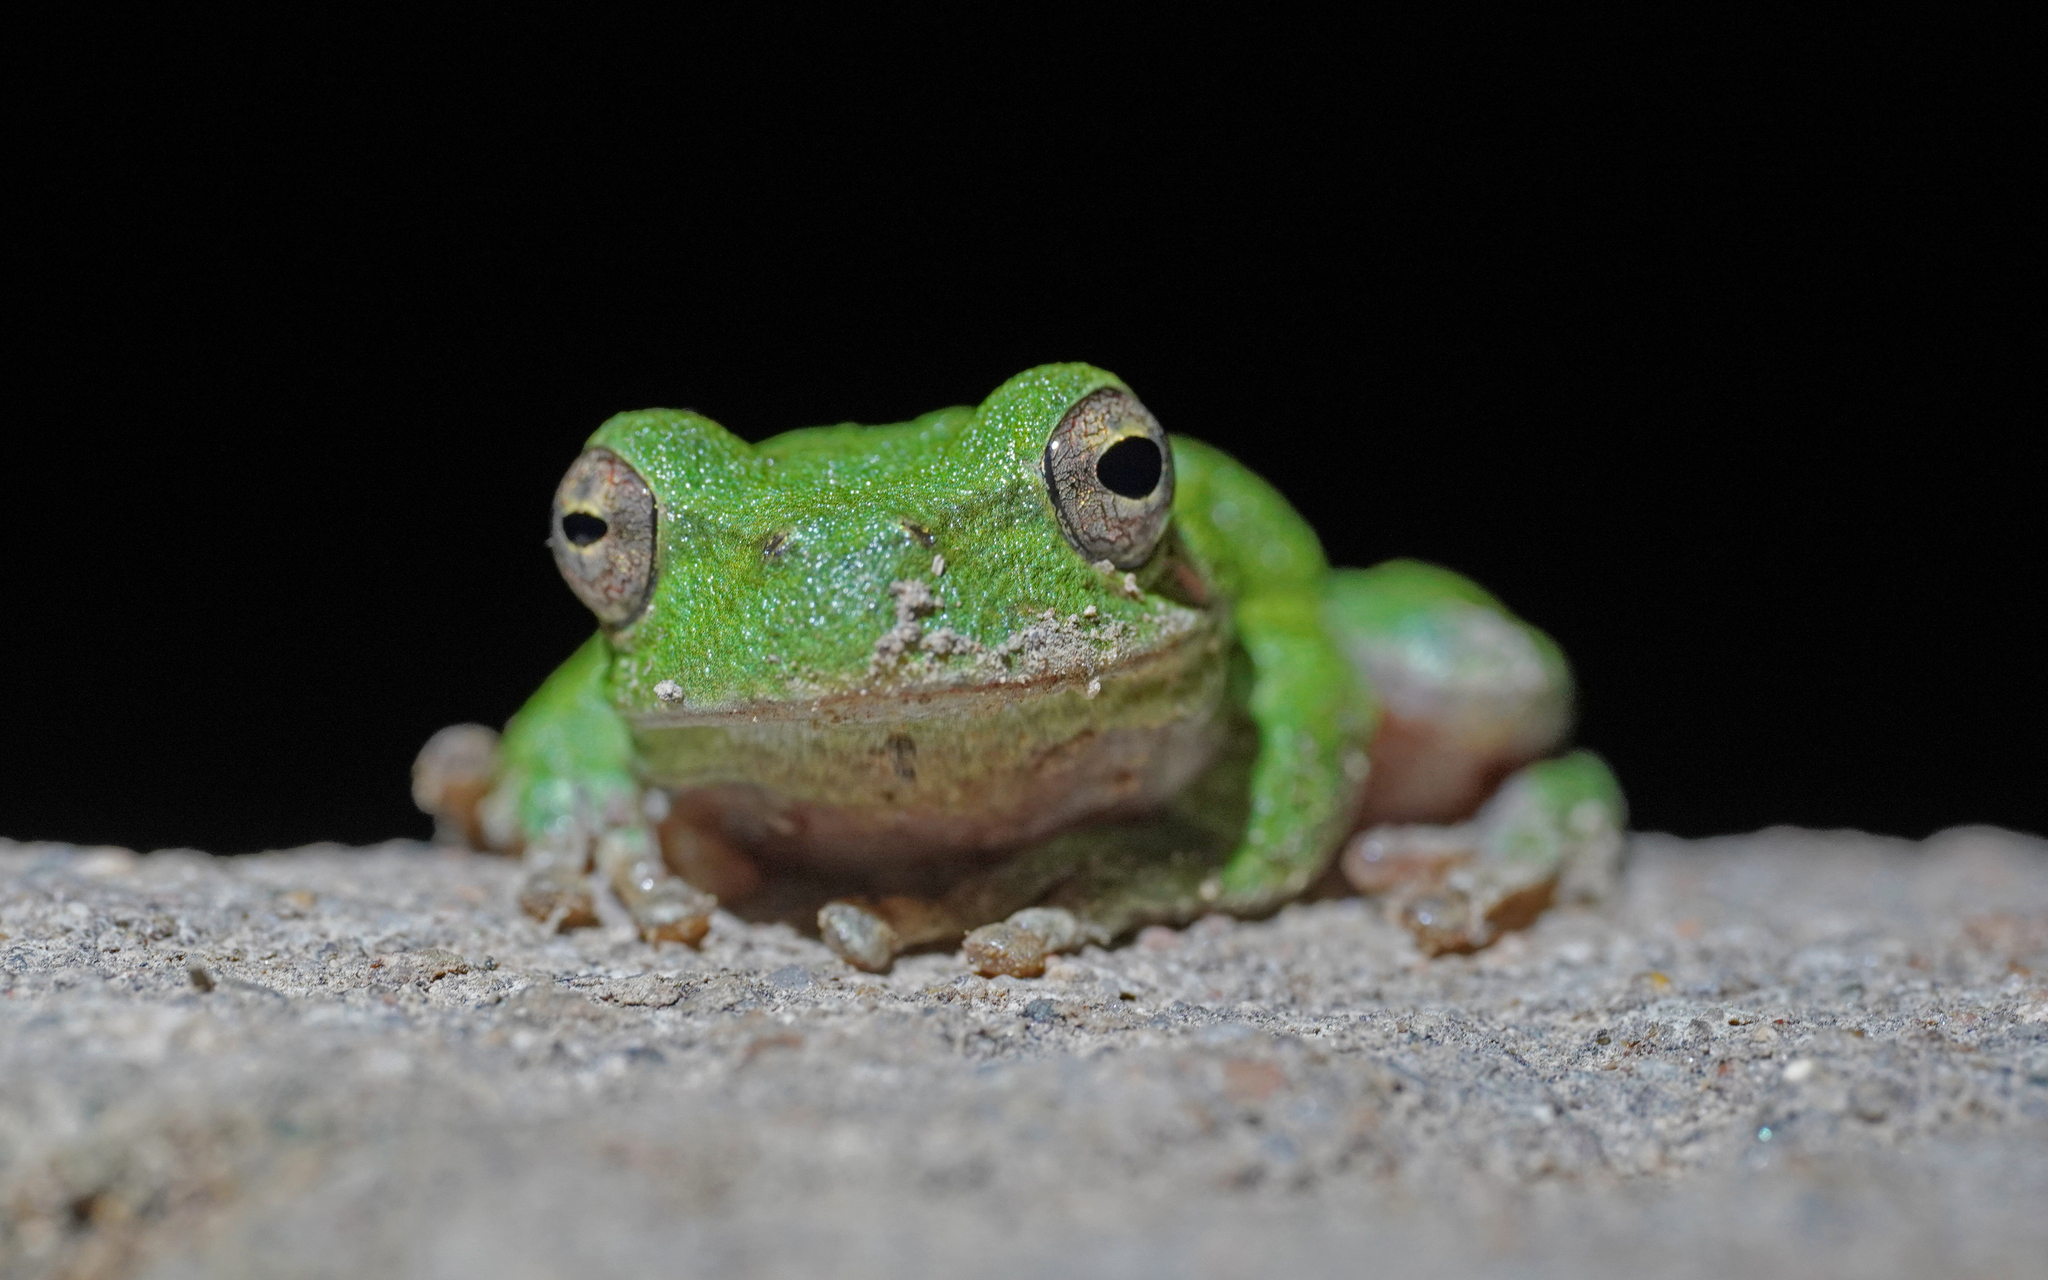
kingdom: Animalia
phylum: Chordata
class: Amphibia
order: Anura
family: Hylidae
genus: Hyla
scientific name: Hyla sarda
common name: Sardinian tree frog
